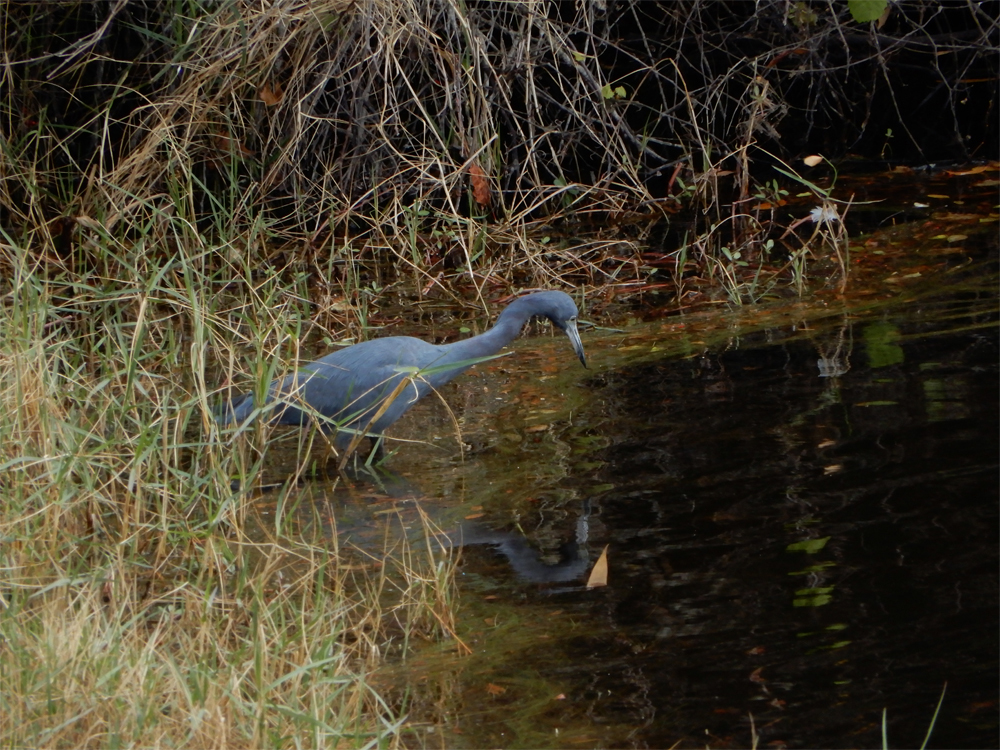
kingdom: Animalia
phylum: Chordata
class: Aves
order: Pelecaniformes
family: Ardeidae
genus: Egretta
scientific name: Egretta caerulea
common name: Little blue heron
